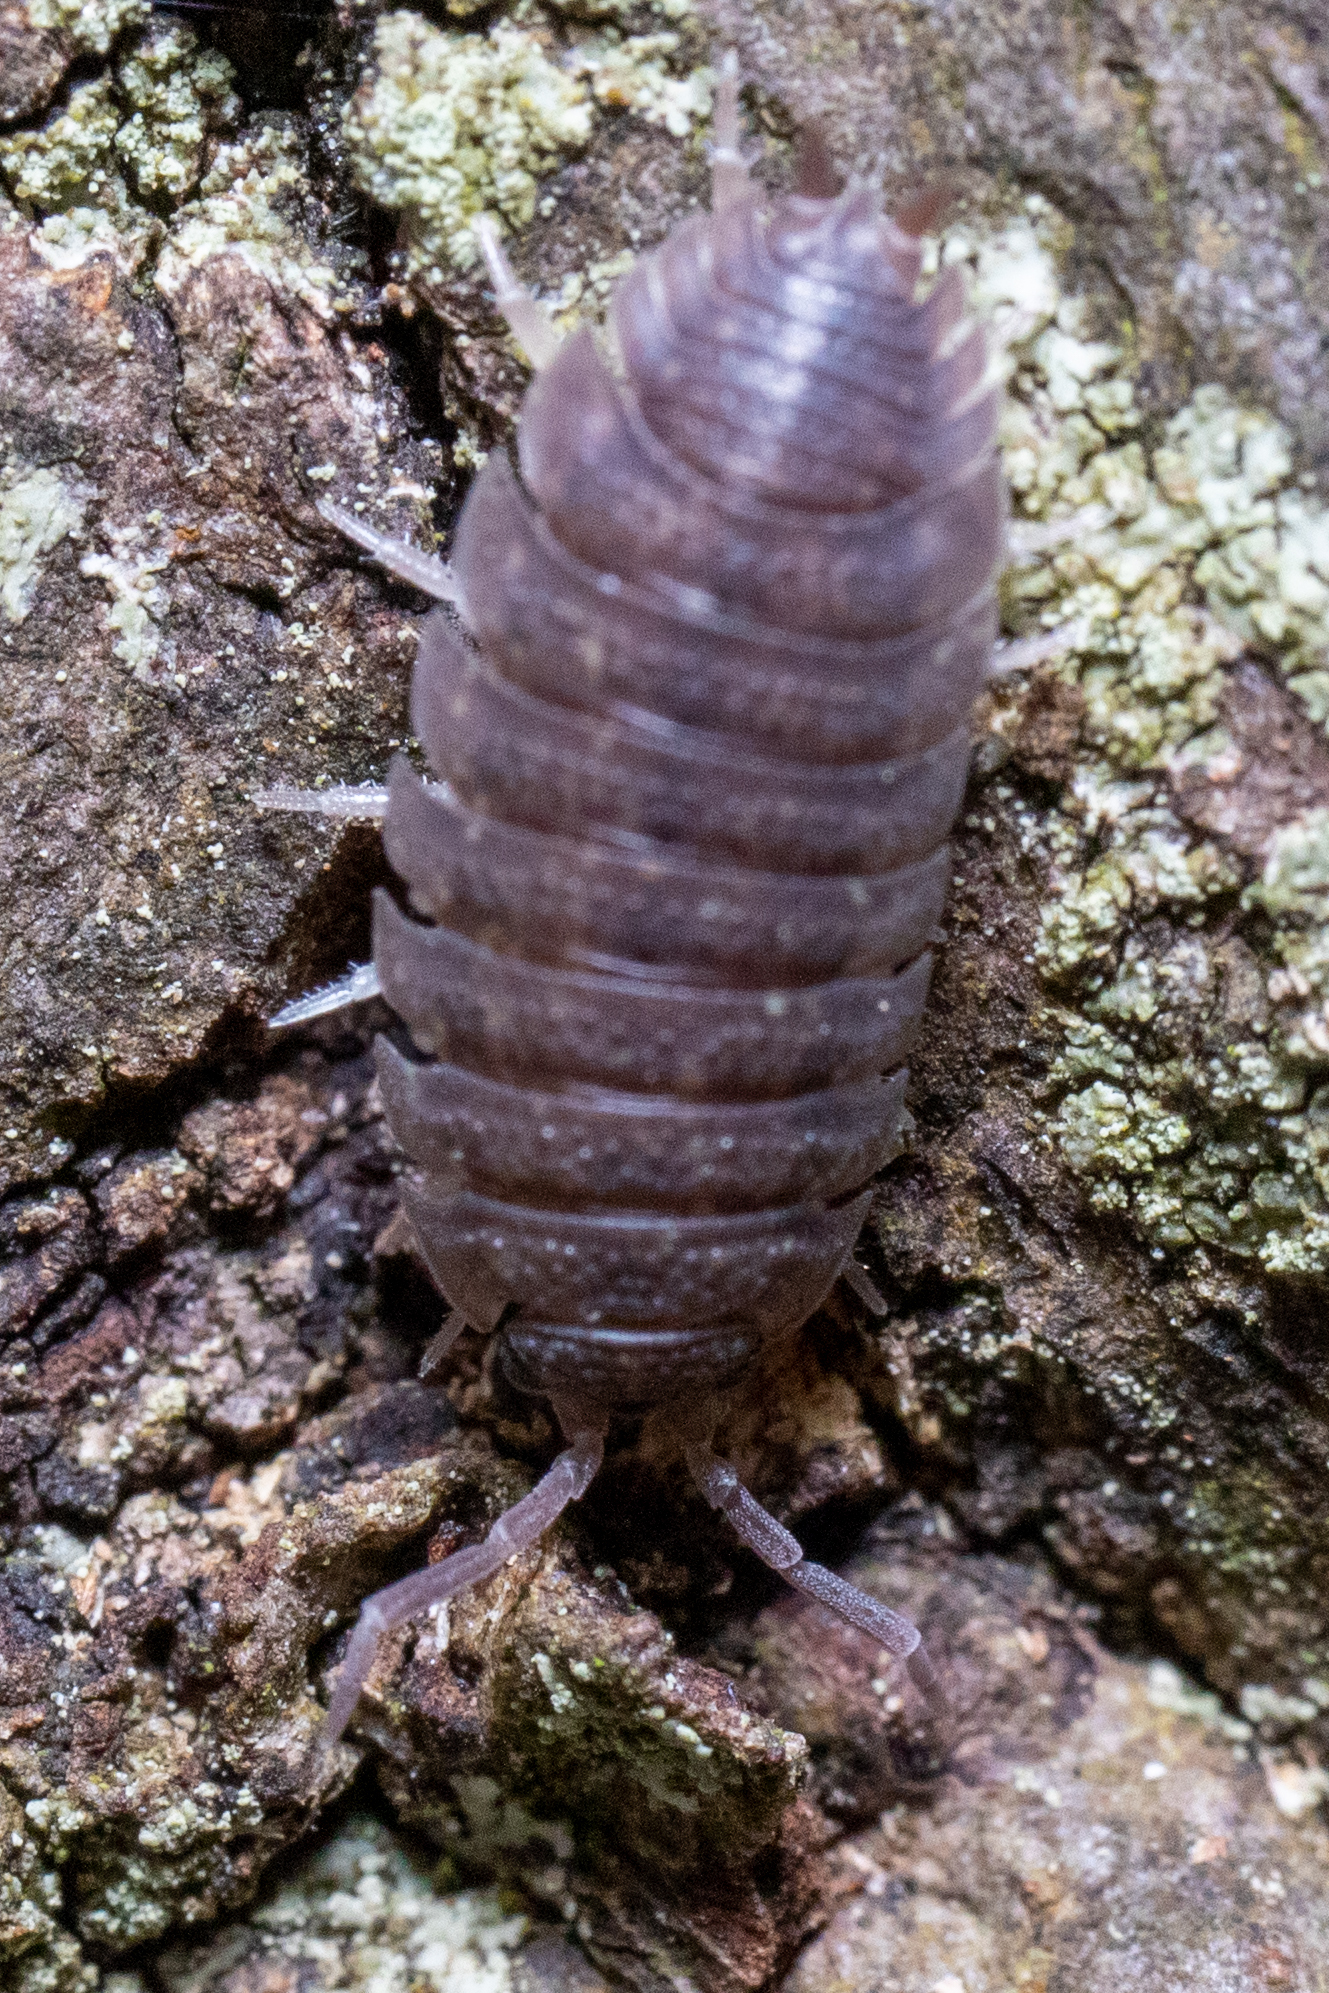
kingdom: Animalia
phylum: Arthropoda
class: Malacostraca
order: Isopoda
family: Porcellionidae
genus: Porcellio
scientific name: Porcellio scaber
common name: Common rough woodlouse
